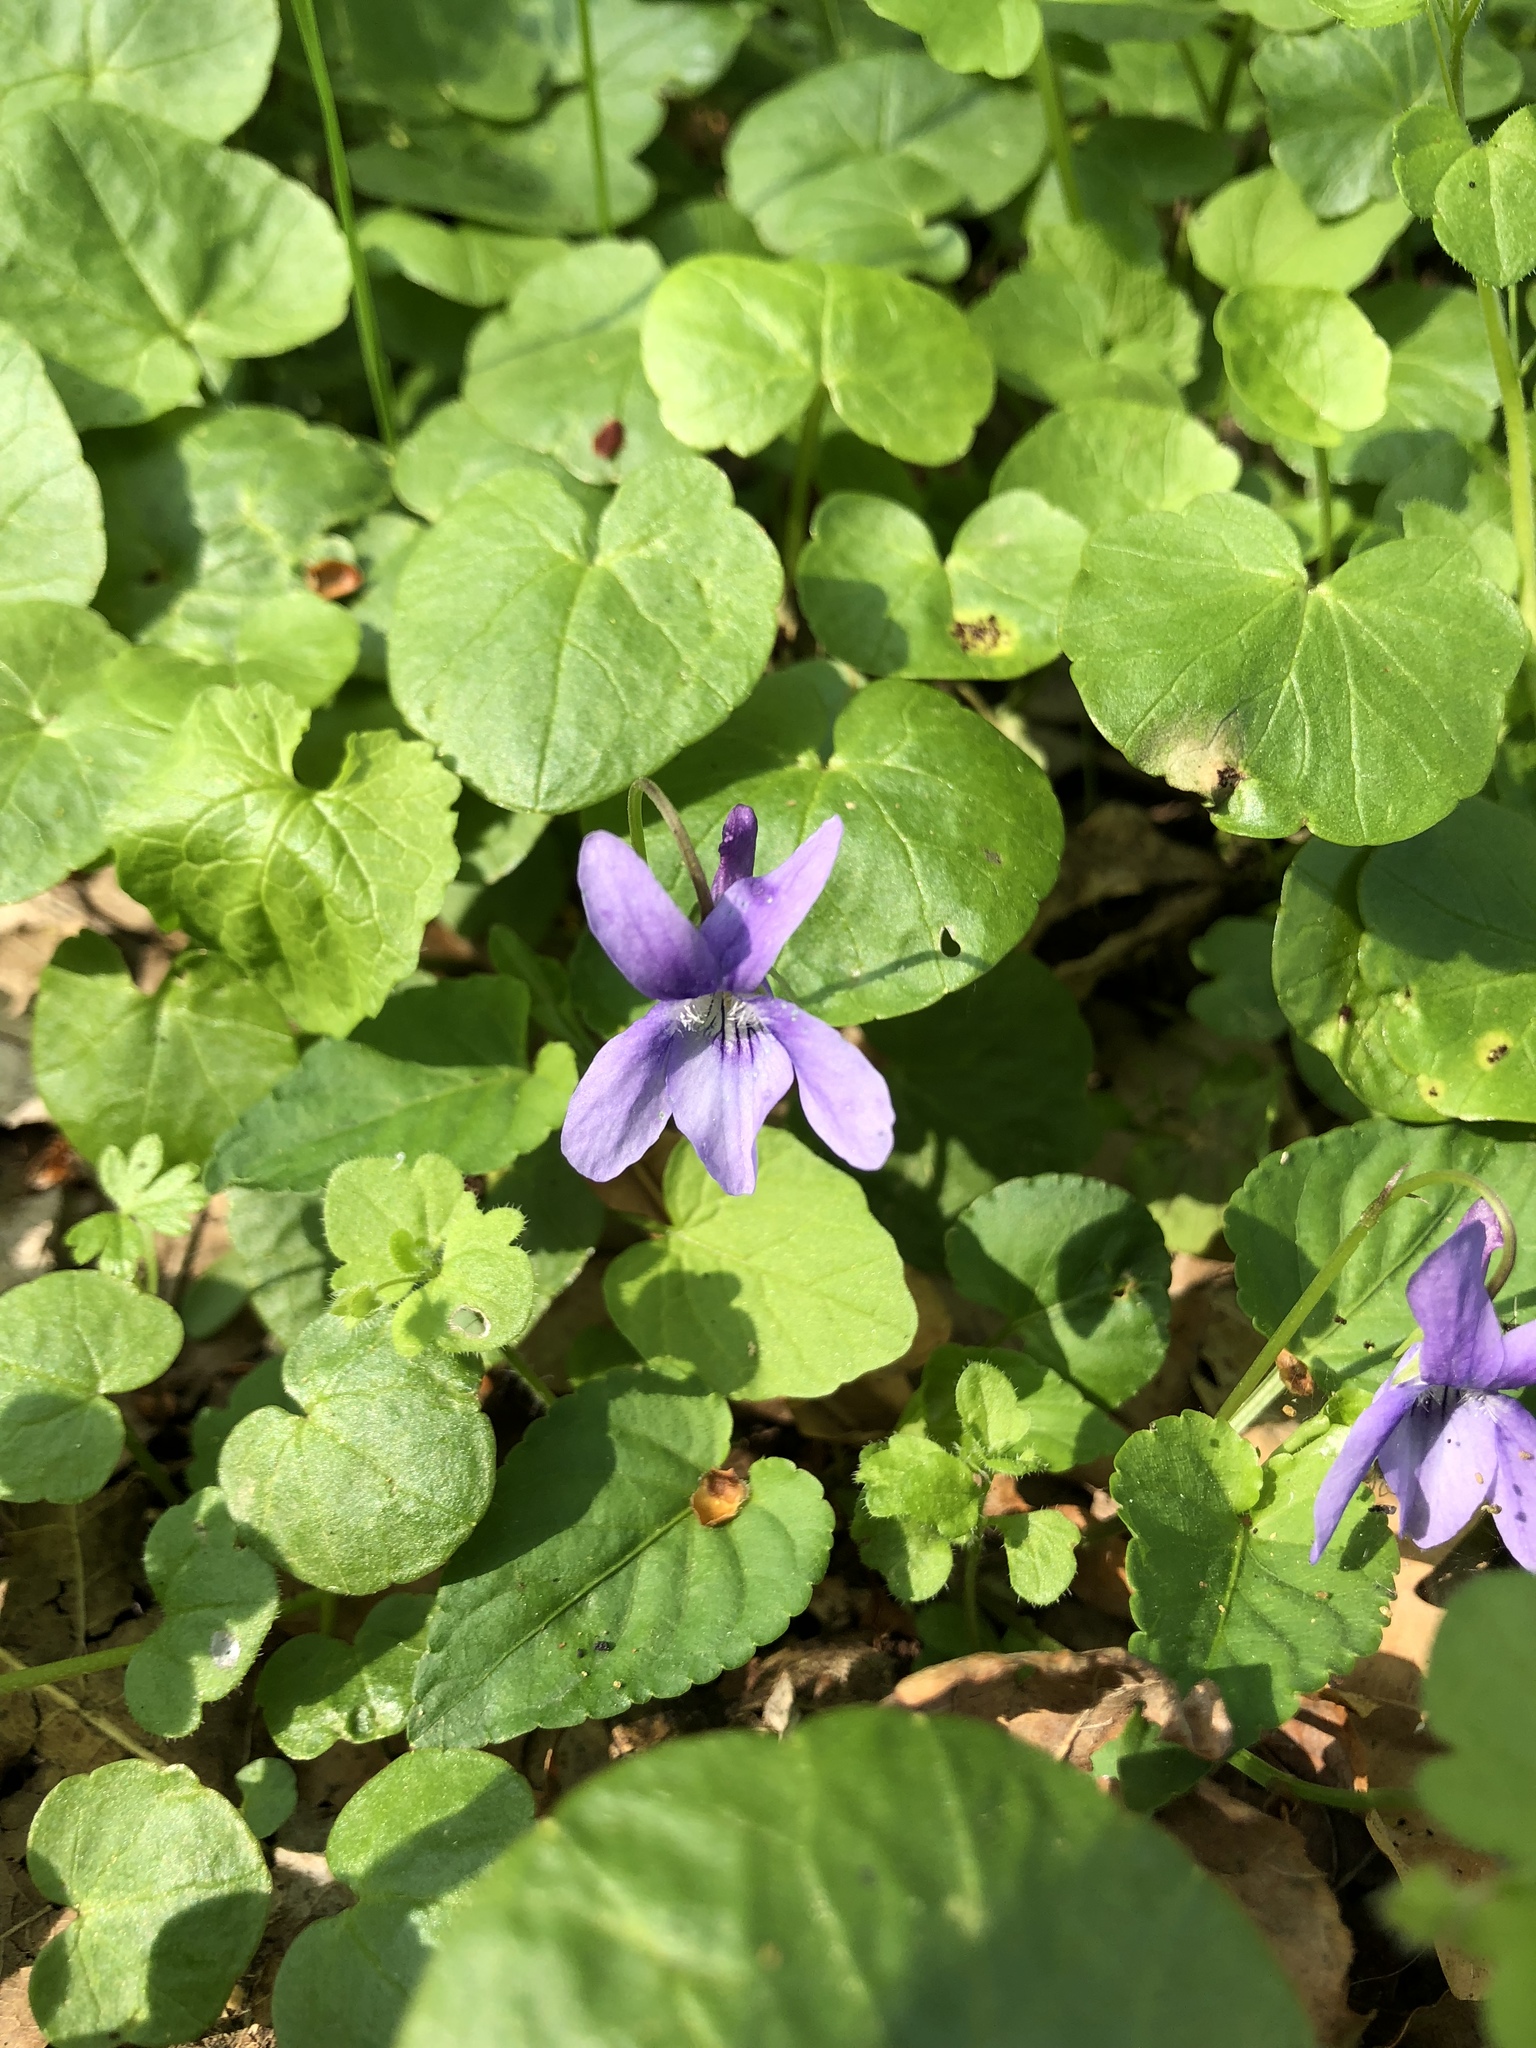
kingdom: Plantae
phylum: Tracheophyta
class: Magnoliopsida
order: Malpighiales
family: Violaceae
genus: Viola
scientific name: Viola odorata
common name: Sweet violet
